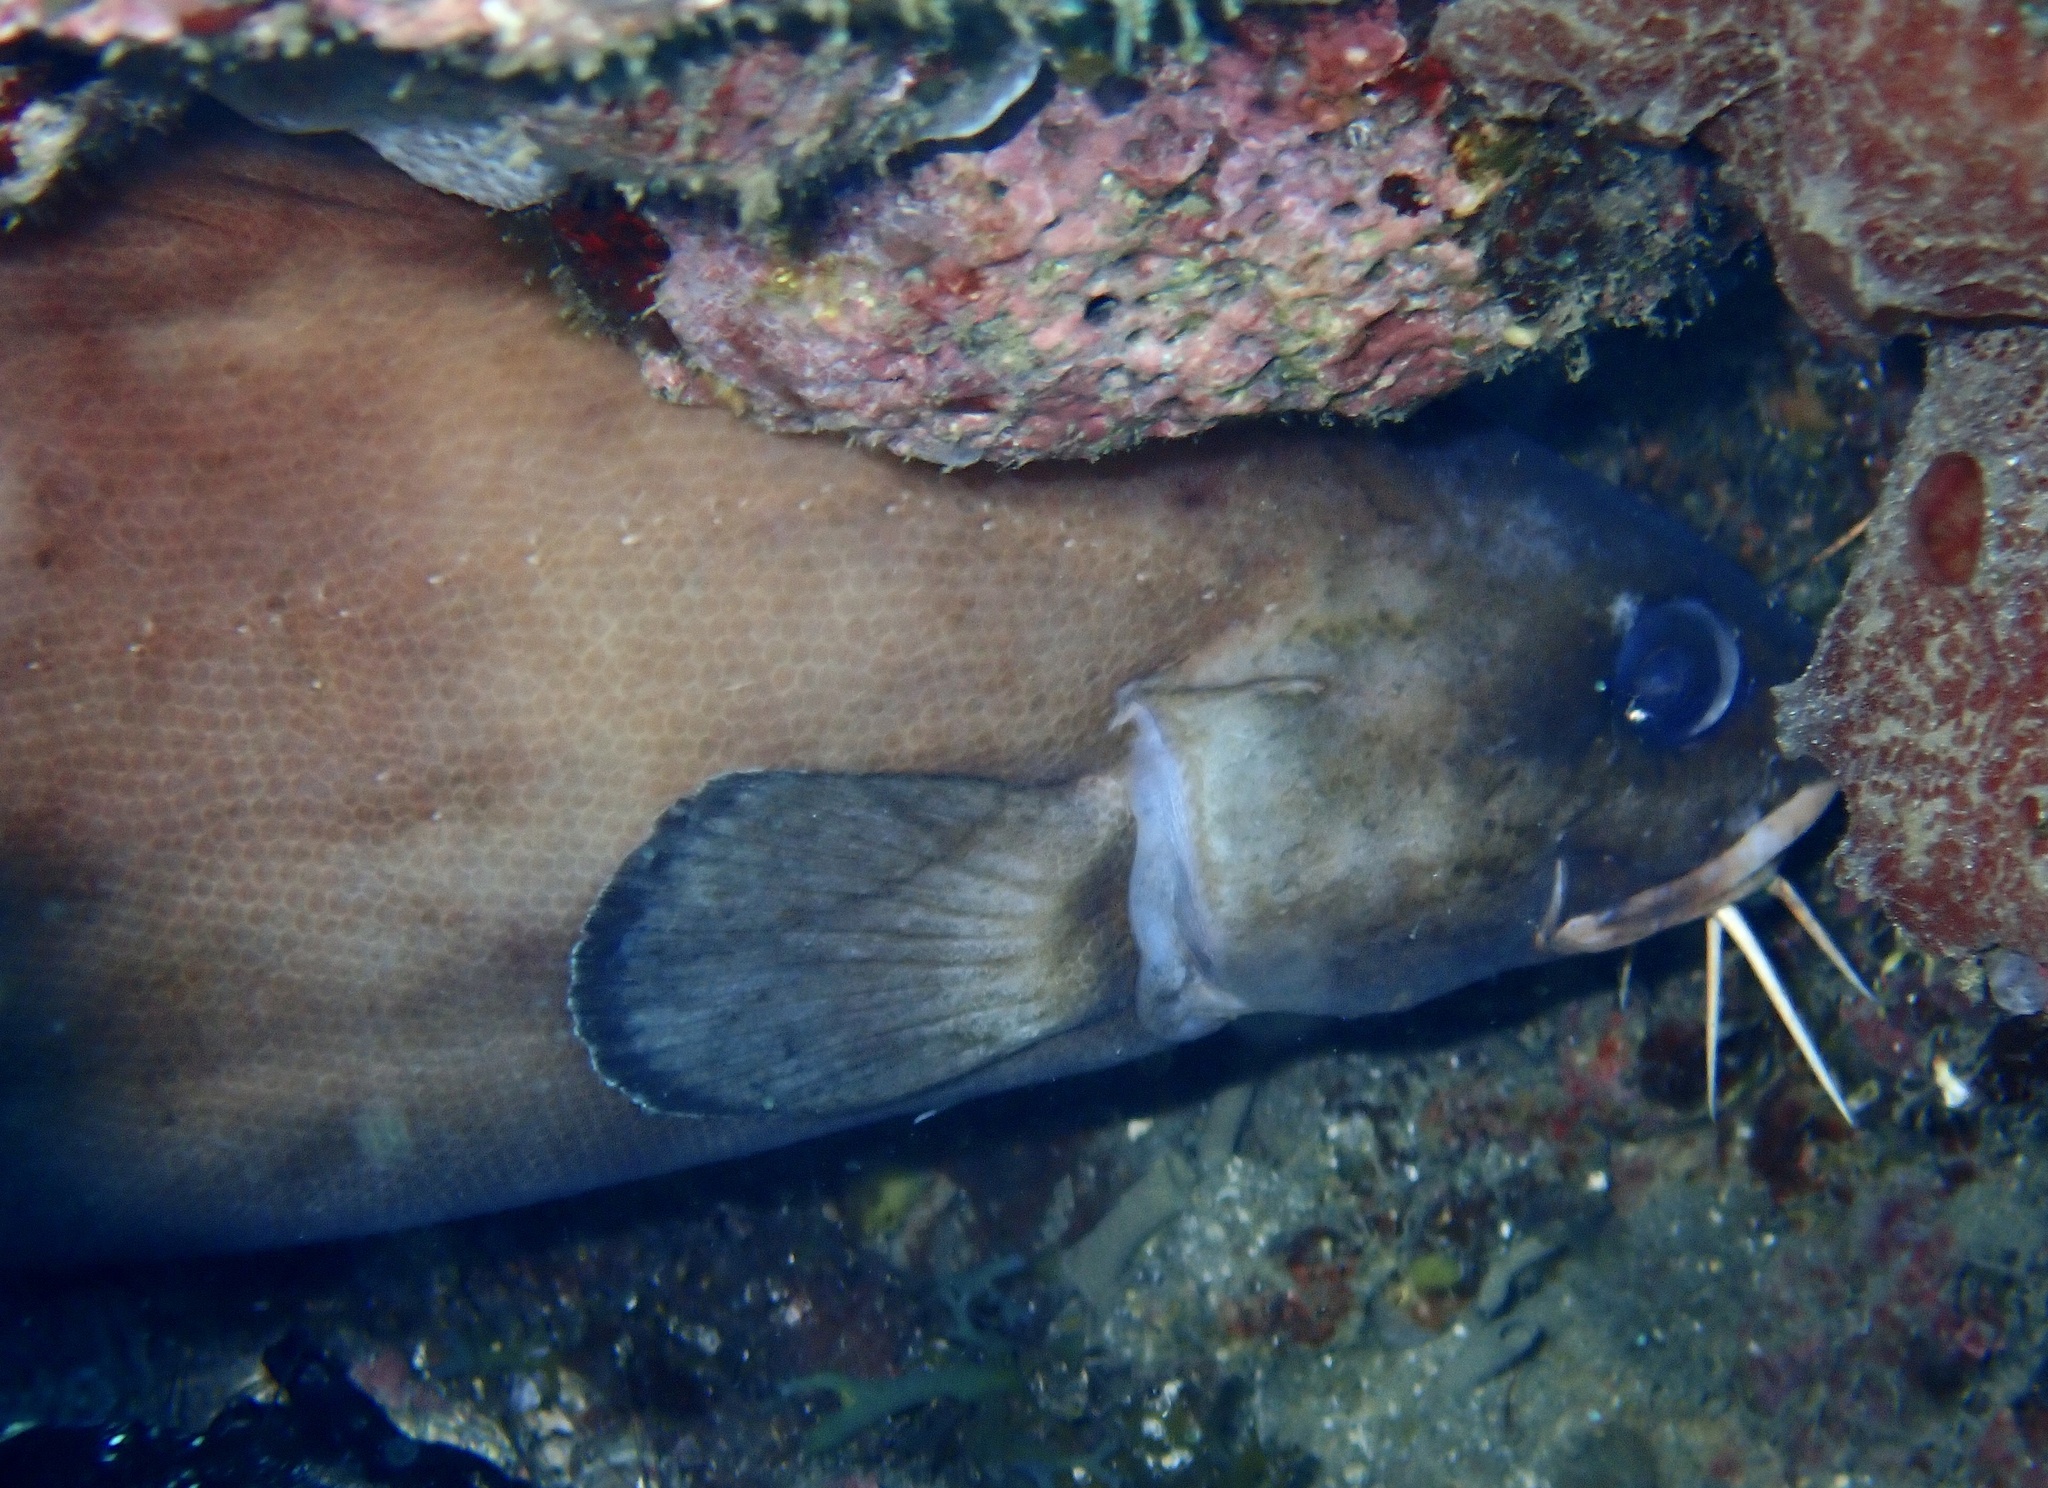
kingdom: Animalia
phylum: Chordata
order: Ophidiiformes
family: Ophidiidae
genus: Brotula
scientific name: Brotula barbata
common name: Bearded brotula
